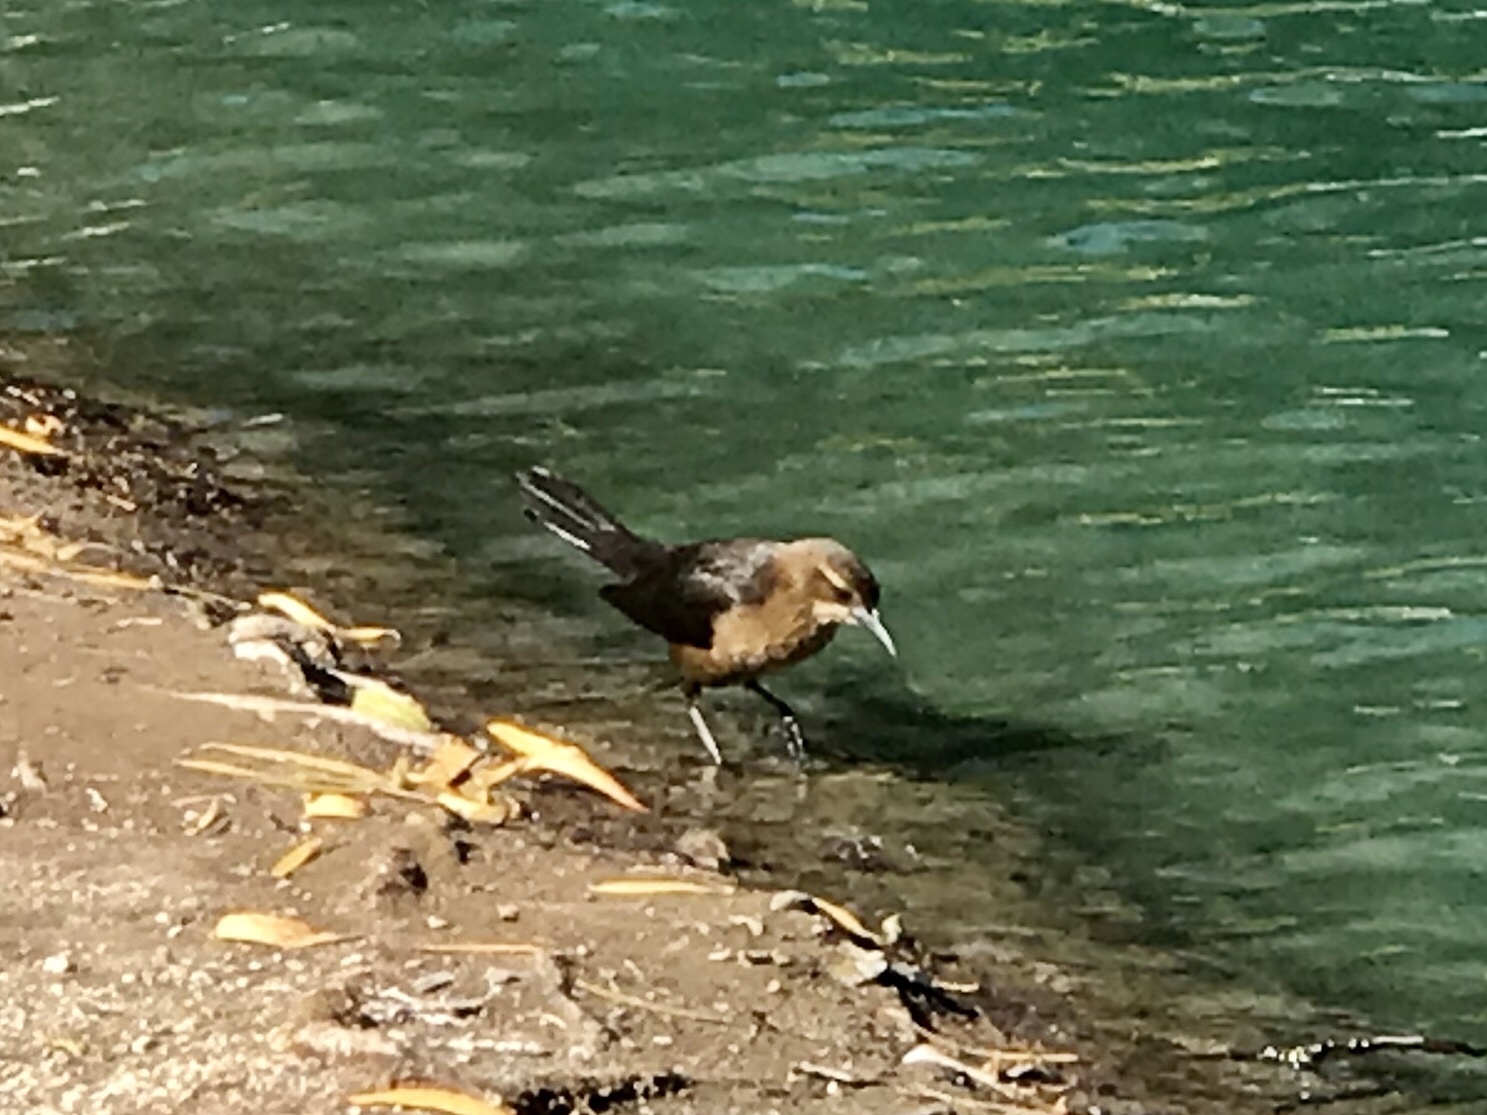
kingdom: Animalia
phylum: Chordata
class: Aves
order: Passeriformes
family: Icteridae
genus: Quiscalus
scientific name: Quiscalus mexicanus
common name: Great-tailed grackle
